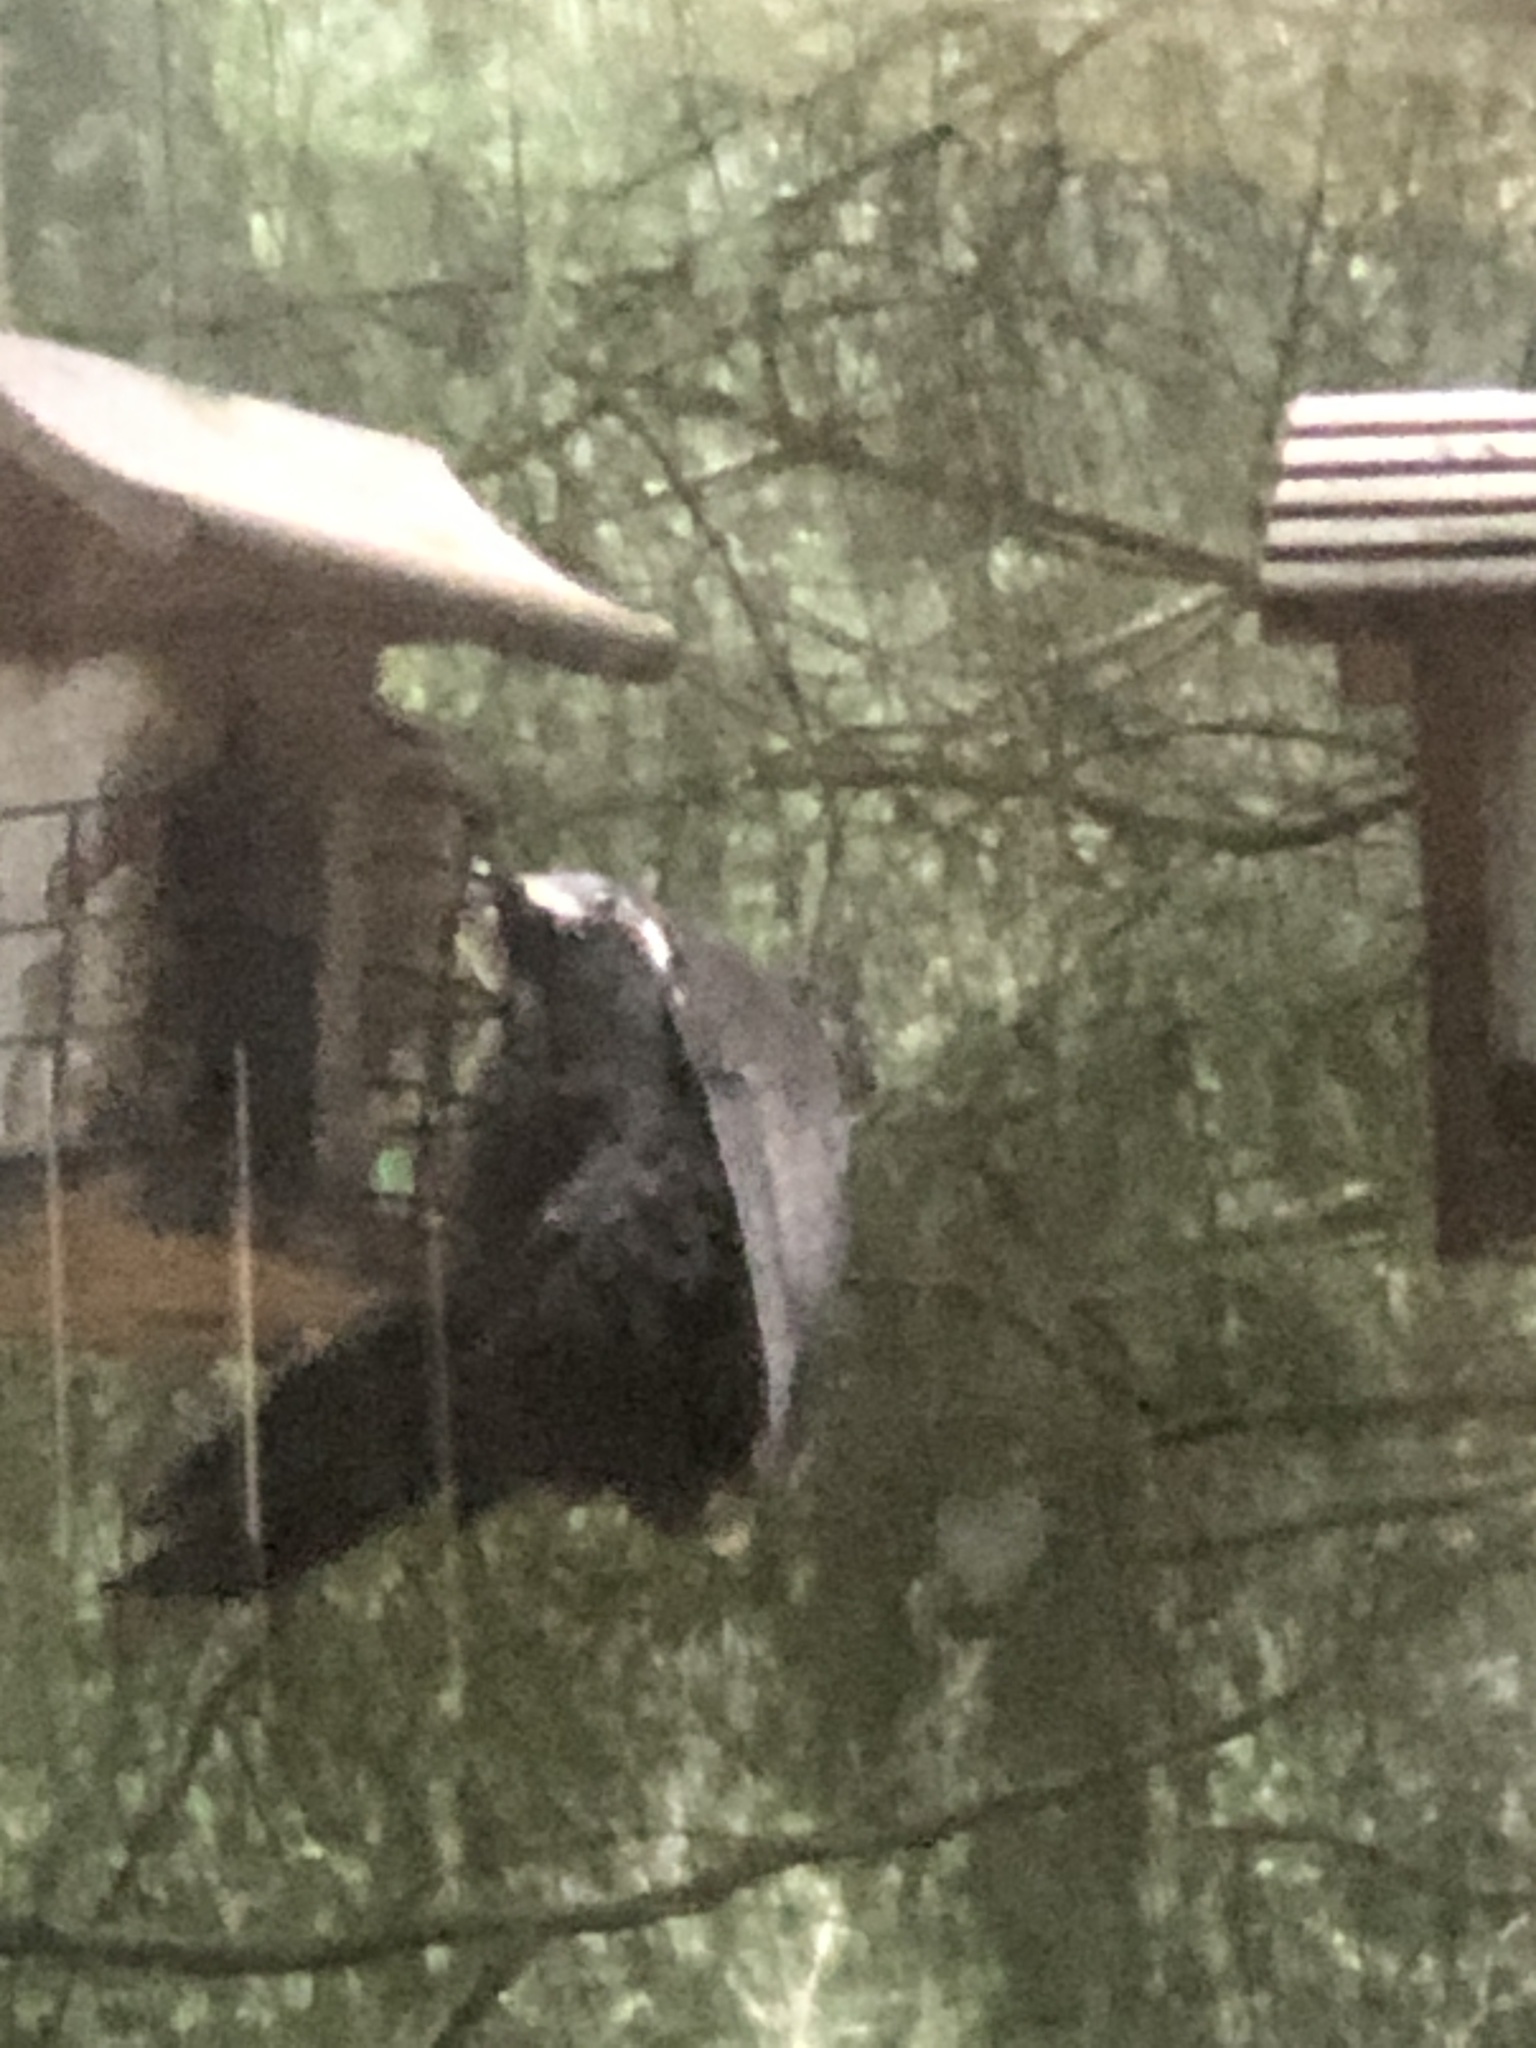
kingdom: Animalia
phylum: Chordata
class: Aves
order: Piciformes
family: Picidae
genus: Dryocopus
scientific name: Dryocopus pileatus
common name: Pileated woodpecker
